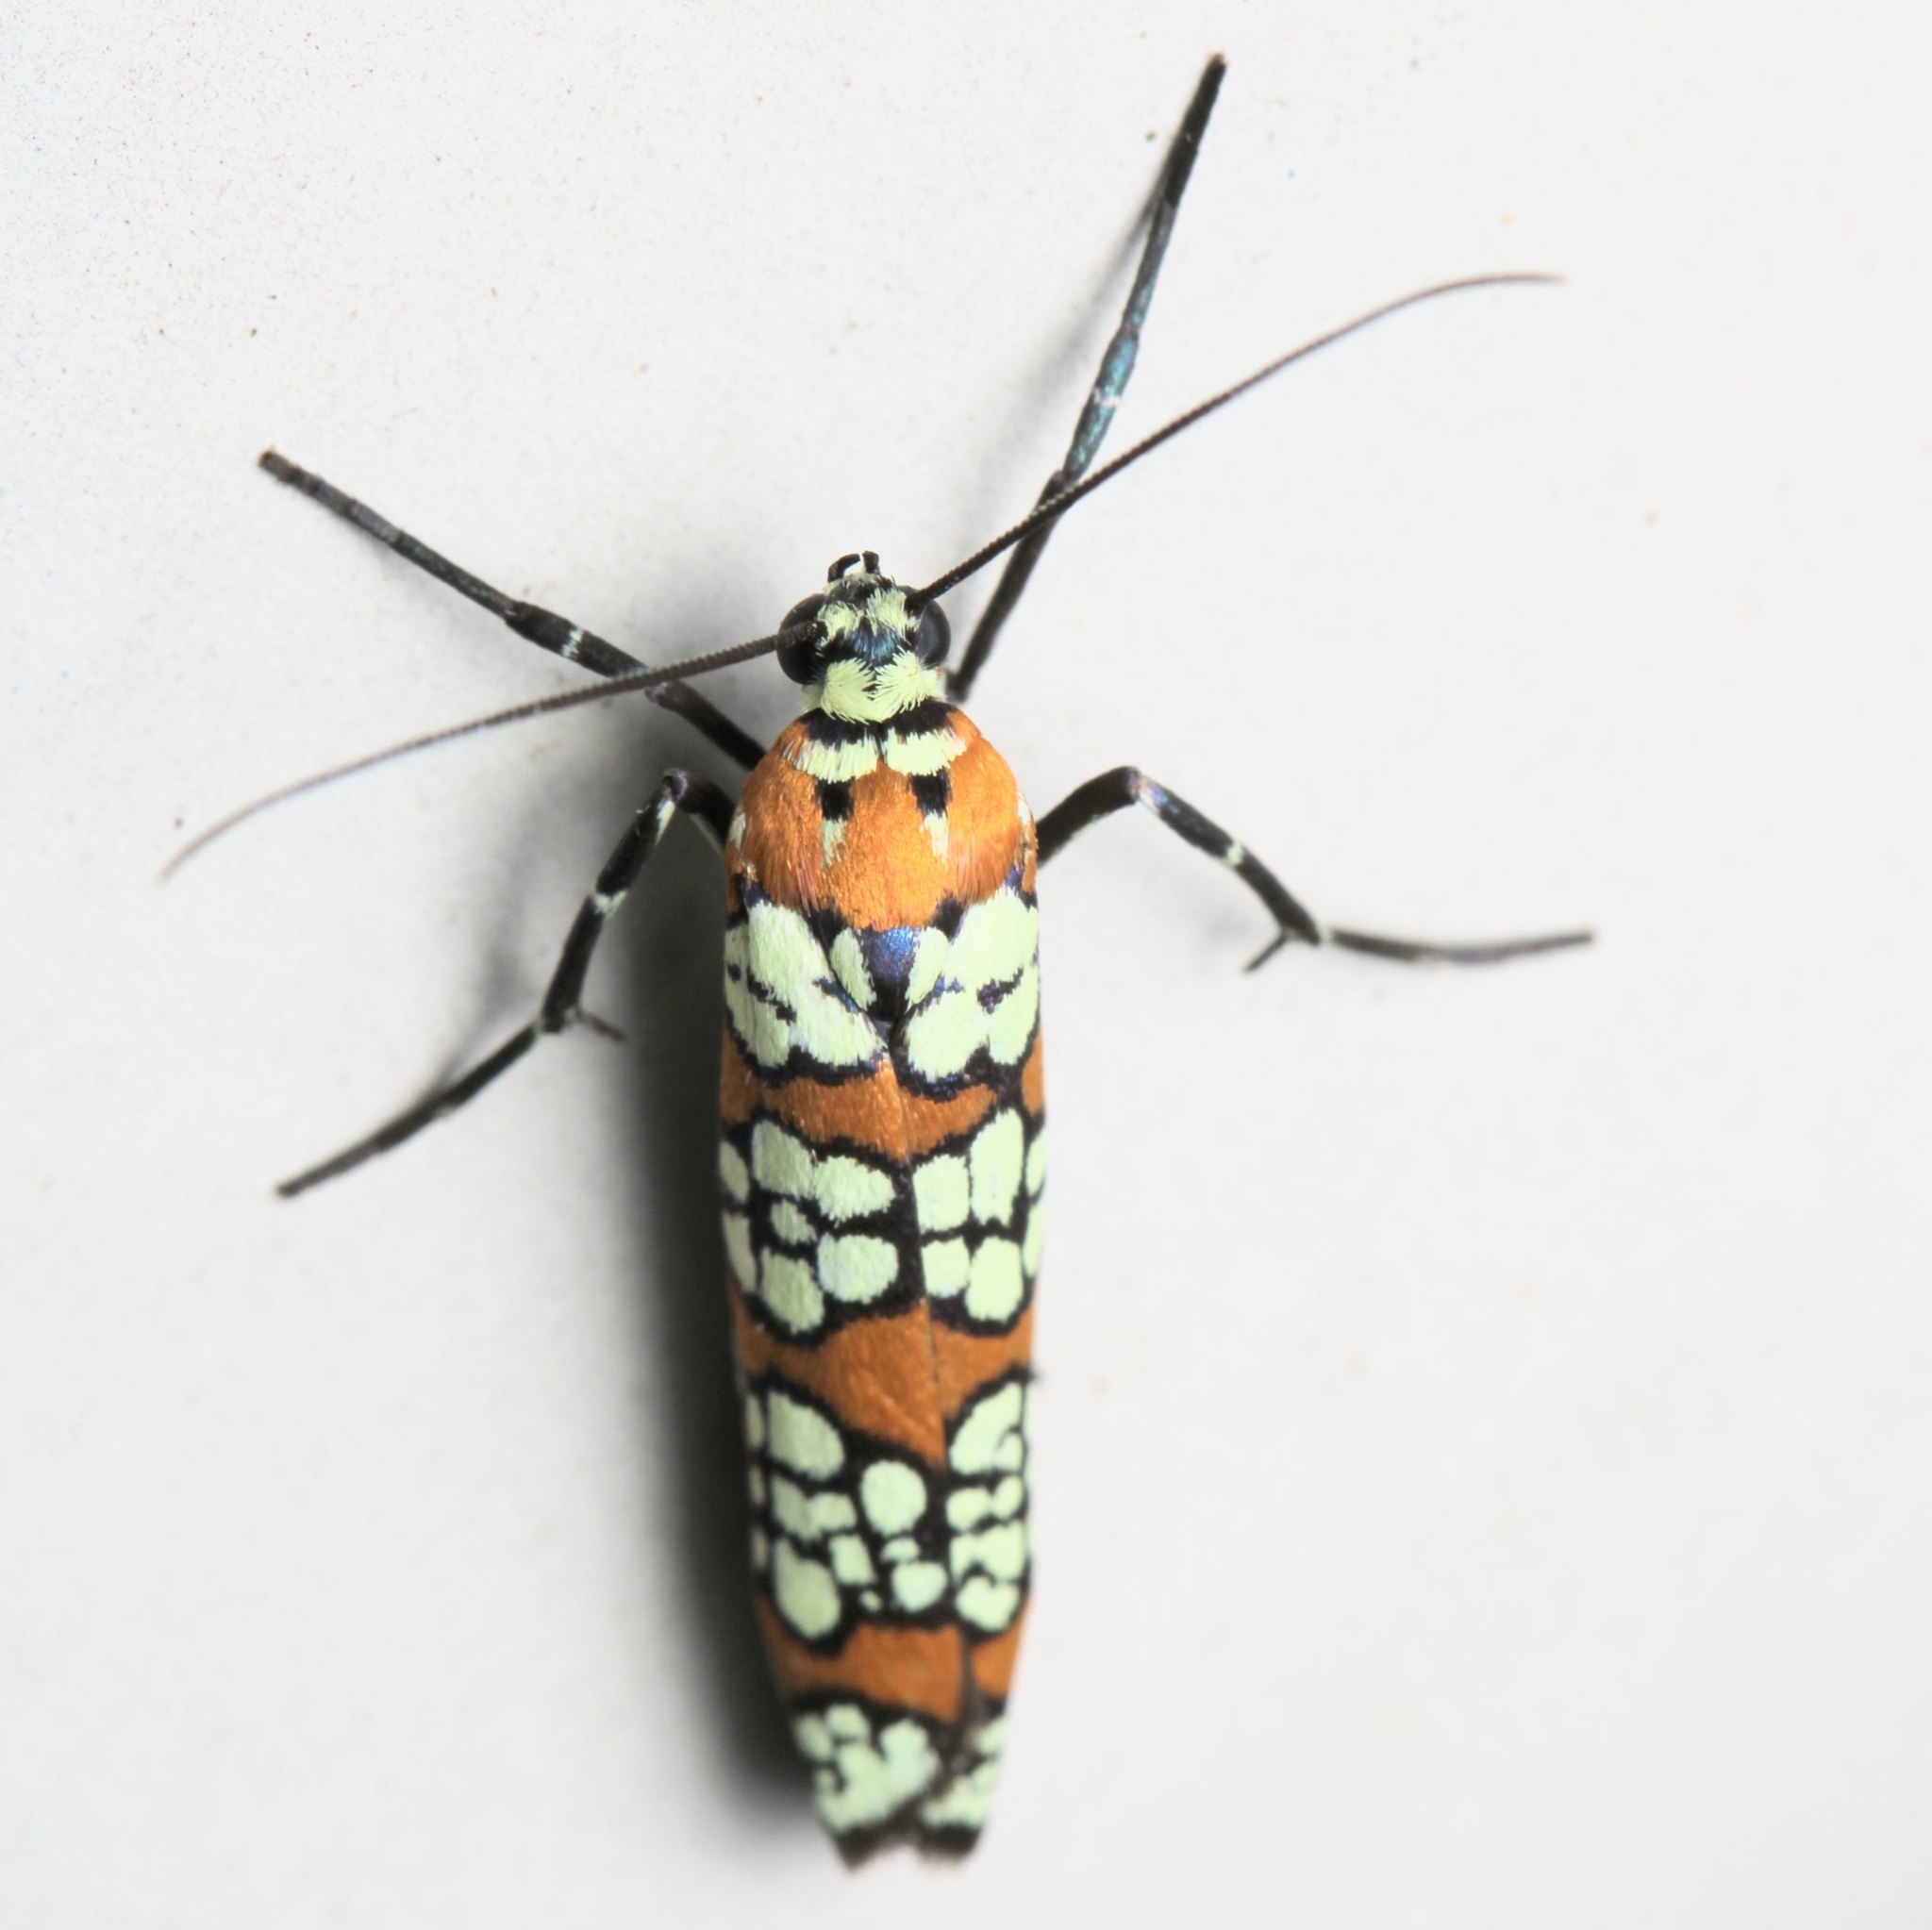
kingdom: Animalia
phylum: Arthropoda
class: Insecta
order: Lepidoptera
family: Attevidae
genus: Atteva
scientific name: Atteva punctella
